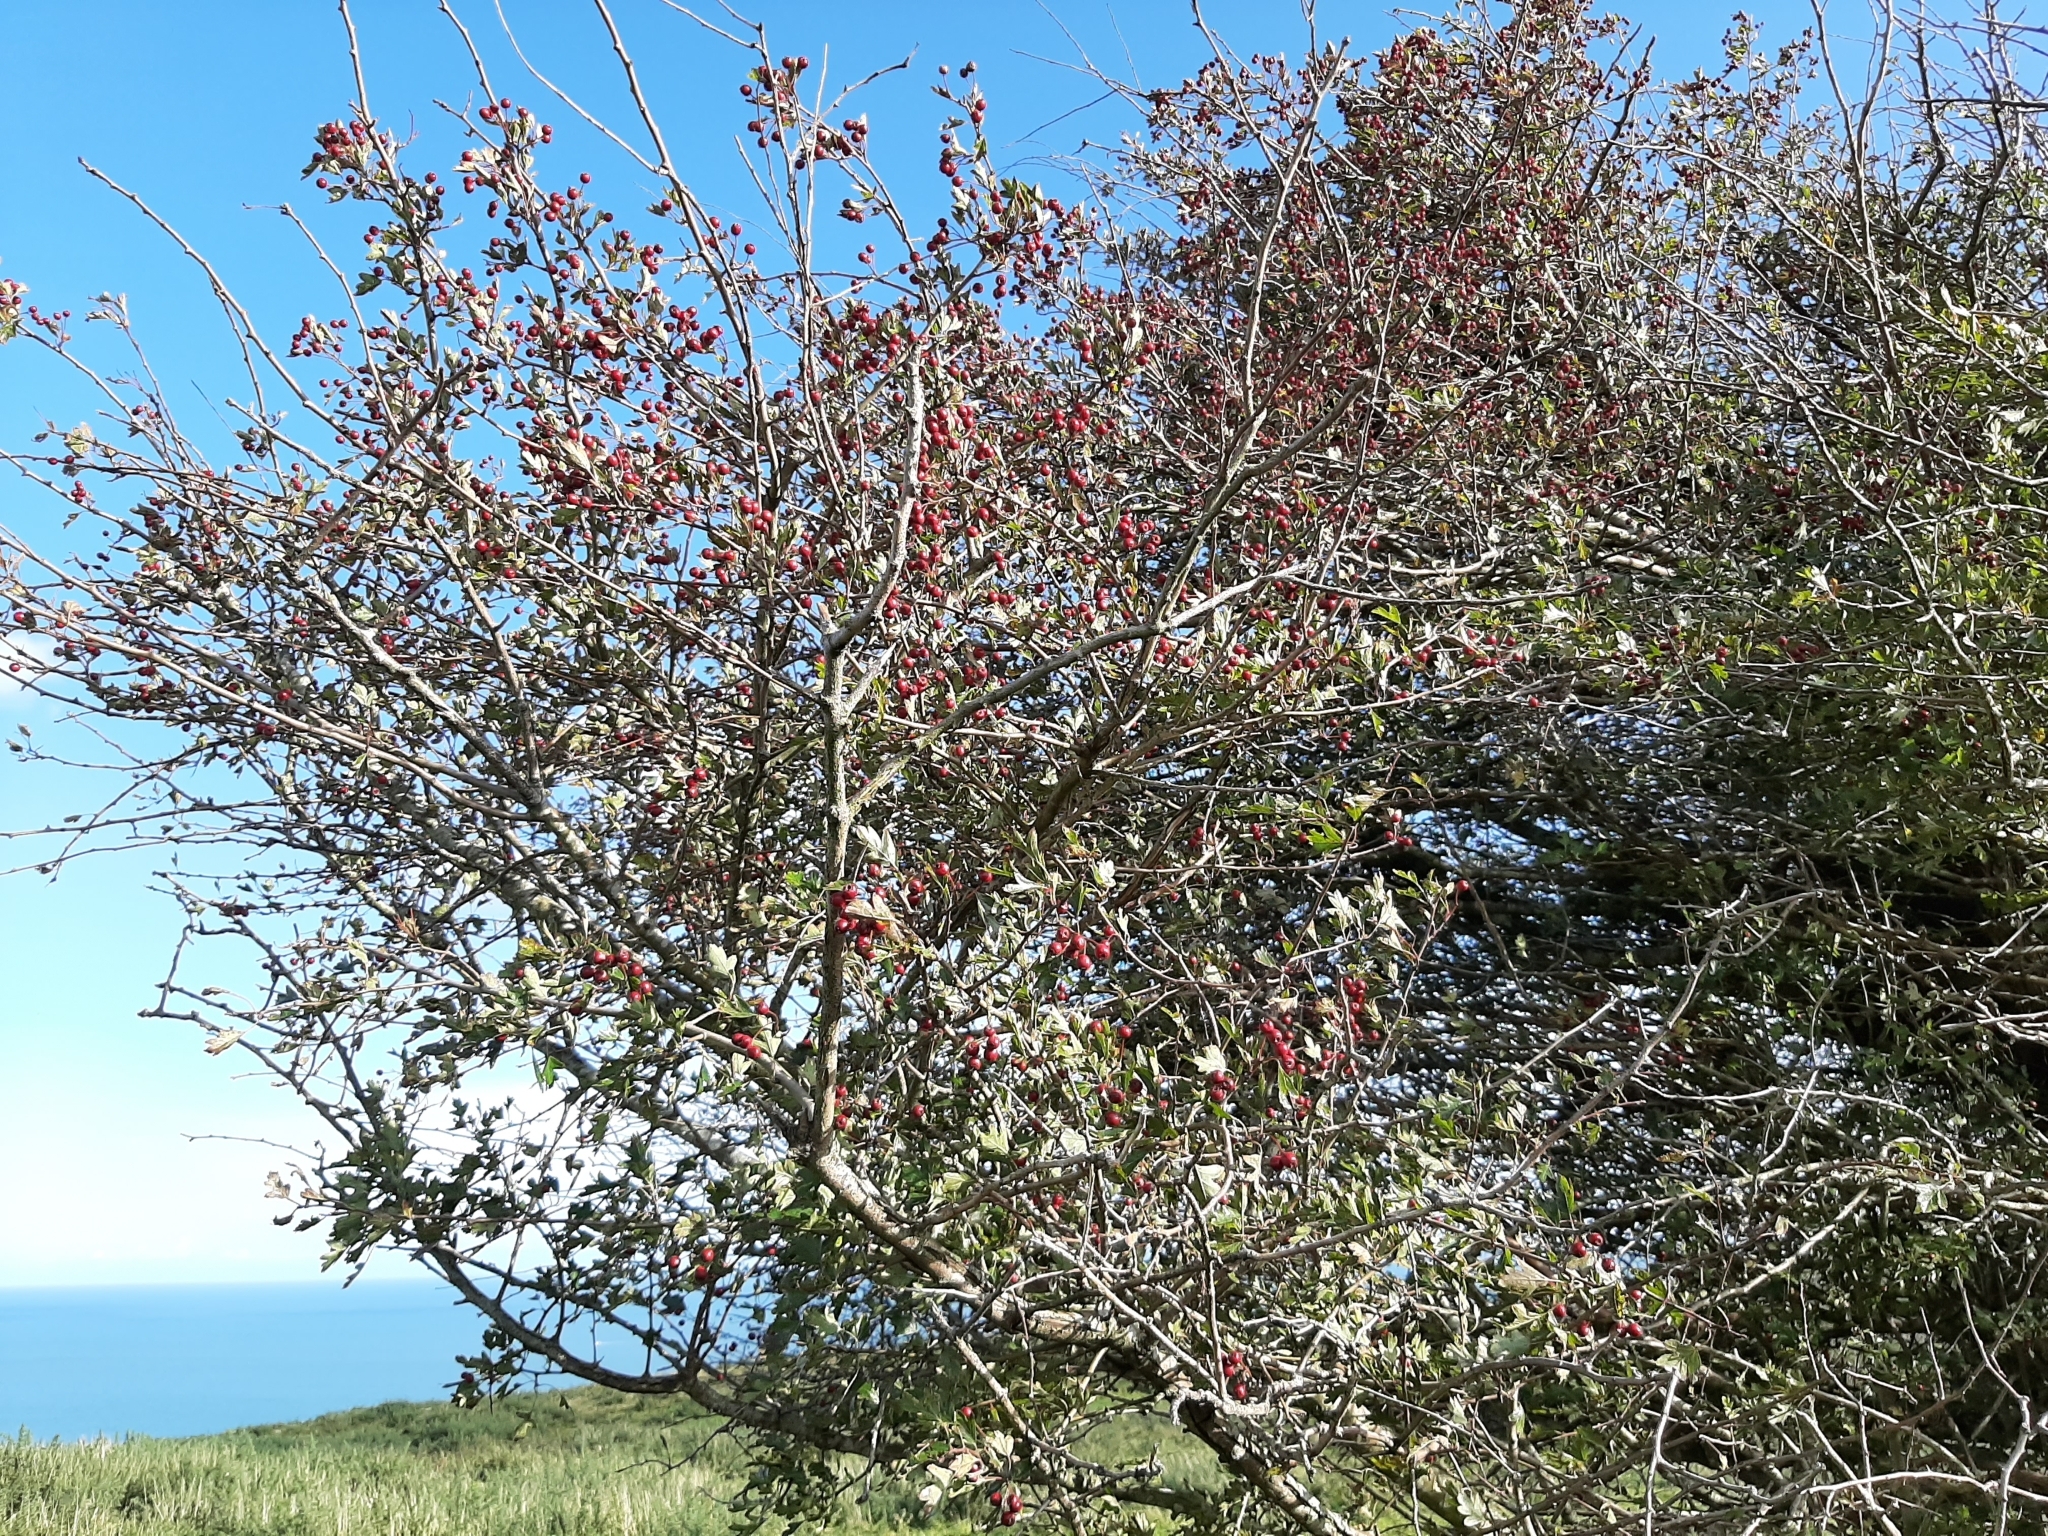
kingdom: Plantae
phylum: Tracheophyta
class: Magnoliopsida
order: Rosales
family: Rosaceae
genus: Crataegus
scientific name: Crataegus monogyna
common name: Hawthorn
